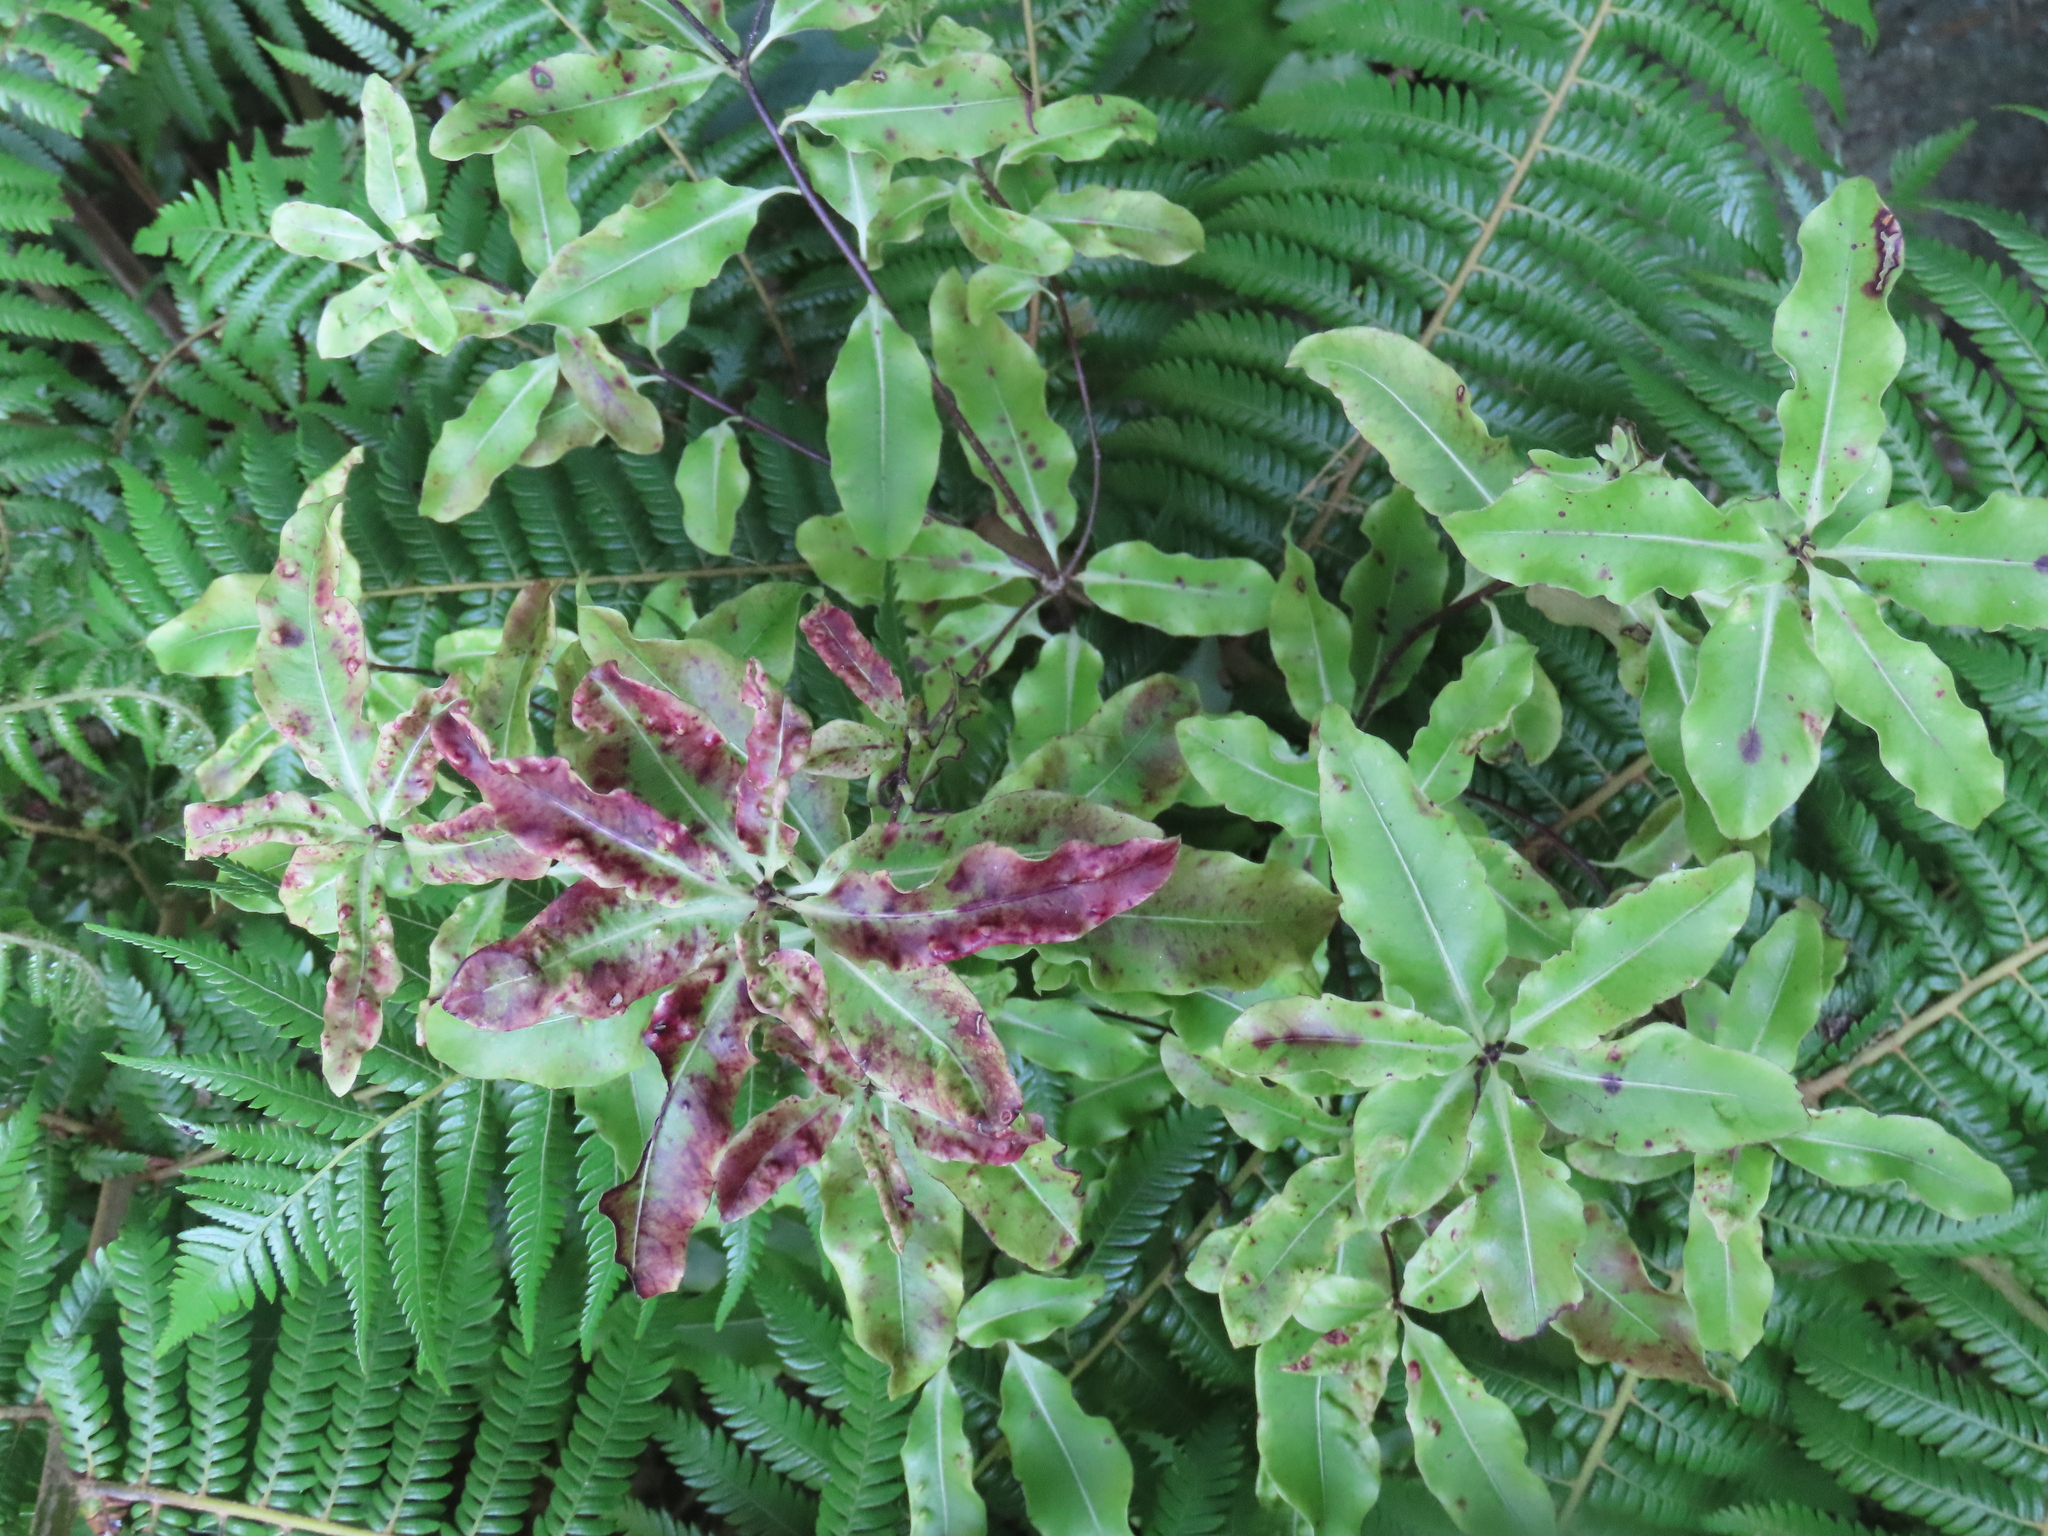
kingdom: Plantae
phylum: Tracheophyta
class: Magnoliopsida
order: Apiales
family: Pittosporaceae
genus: Pittosporum
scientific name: Pittosporum eugenioides
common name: Lemonwood
